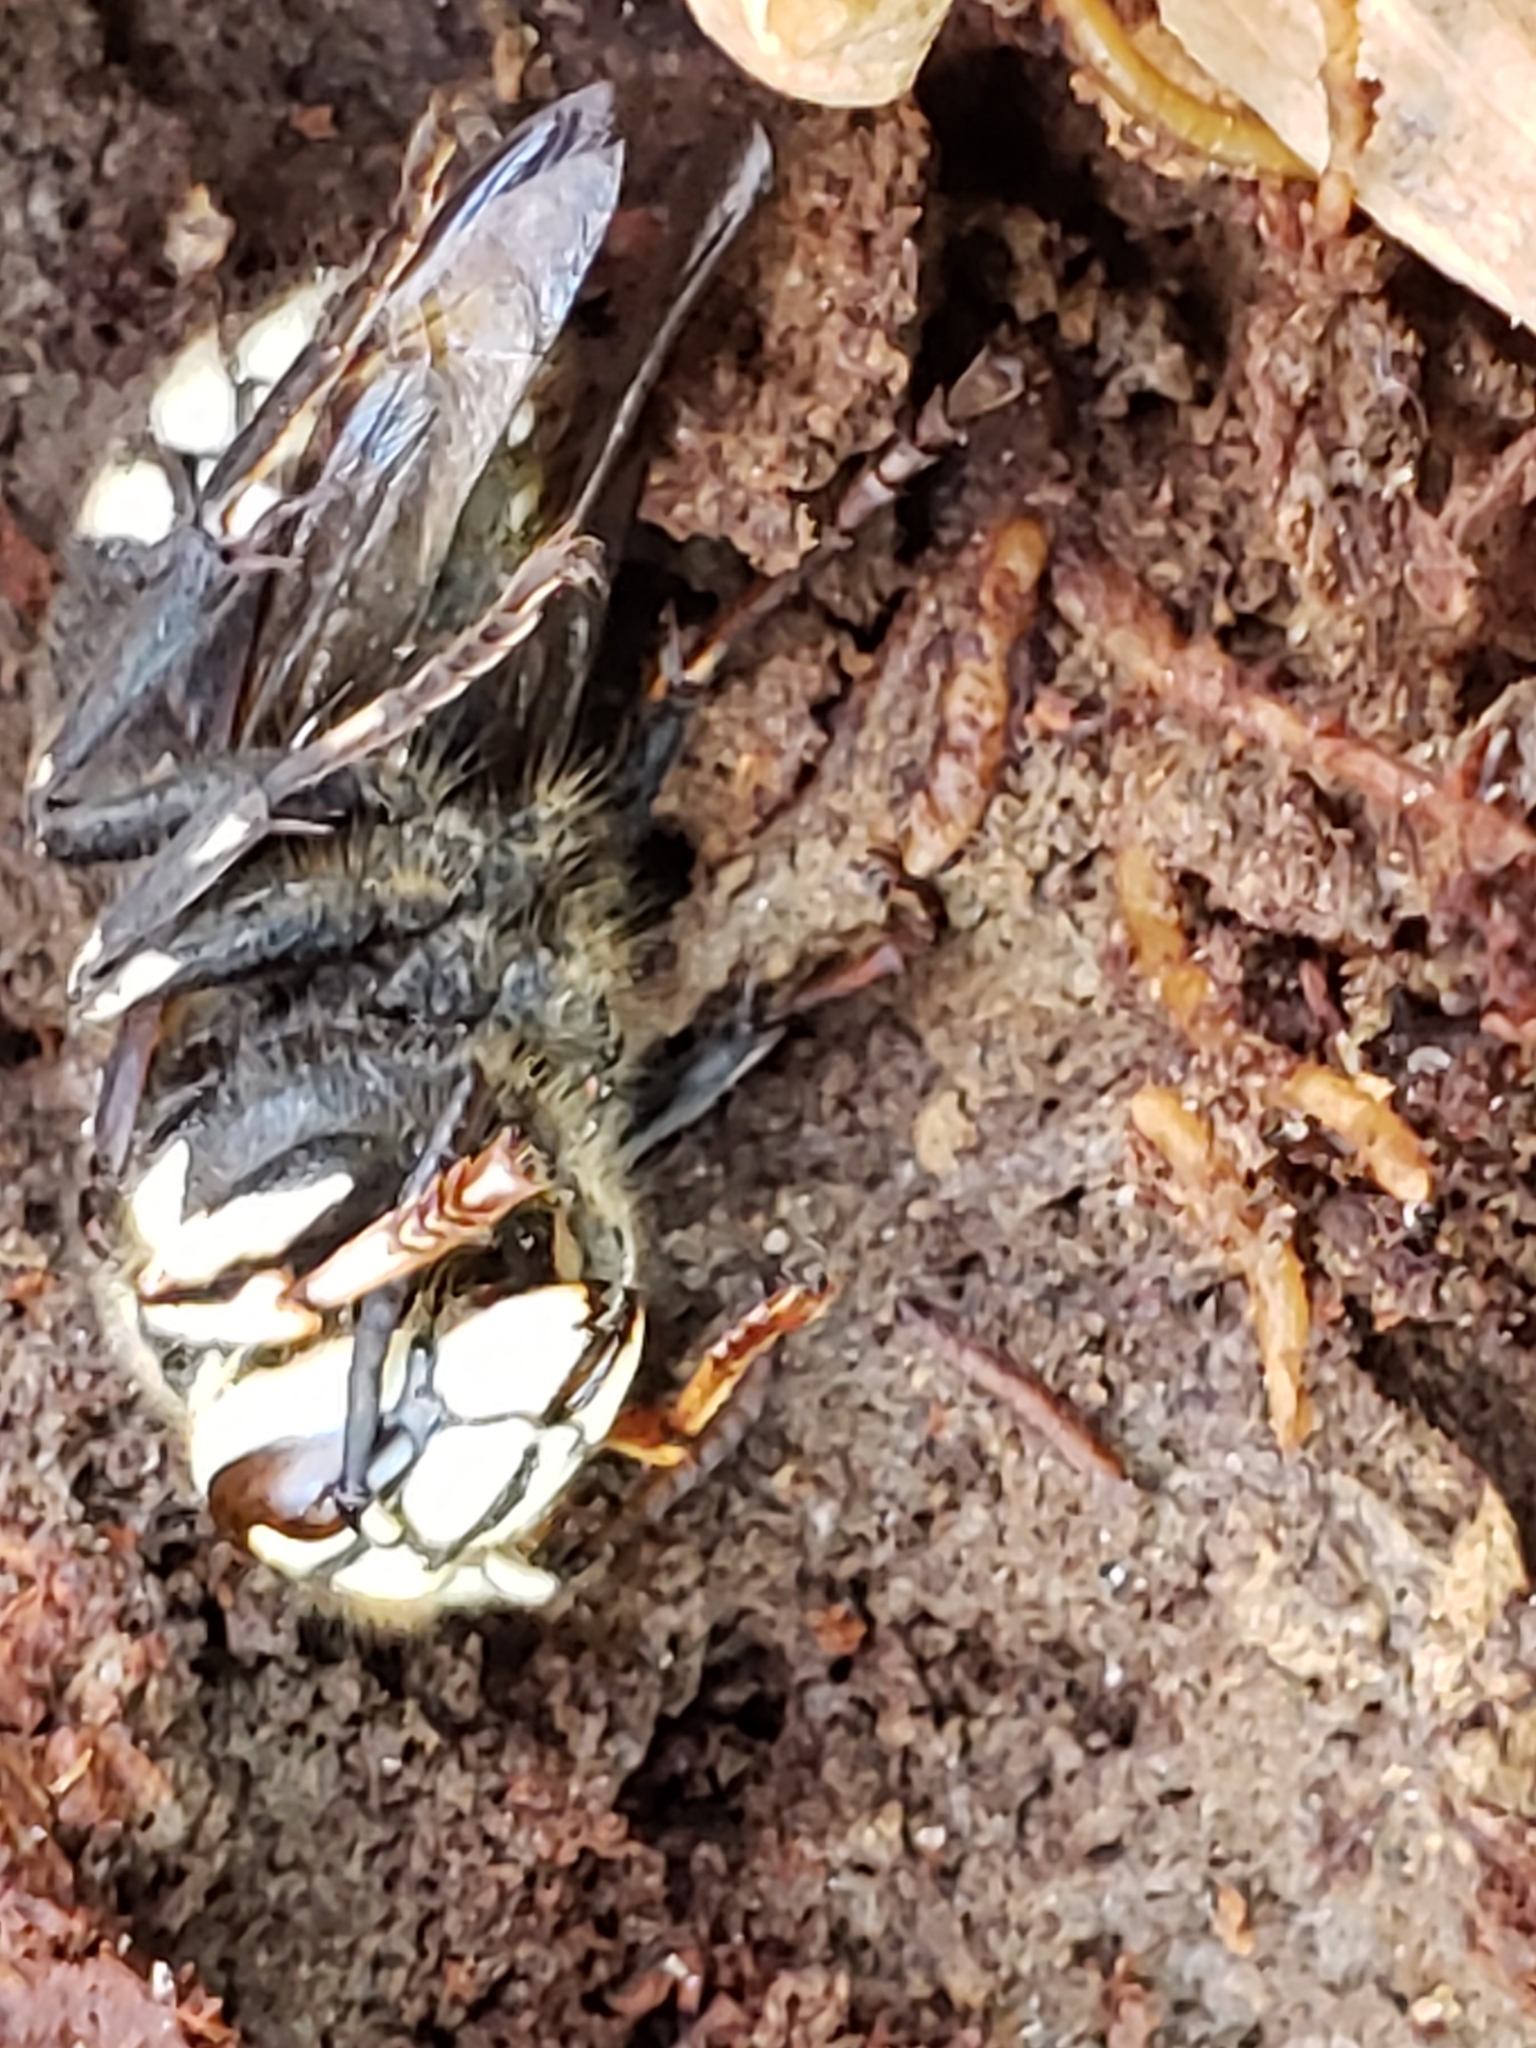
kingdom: Animalia
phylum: Arthropoda
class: Insecta
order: Hymenoptera
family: Vespidae
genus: Dolichovespula
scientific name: Dolichovespula maculata
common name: Bald-faced hornet
